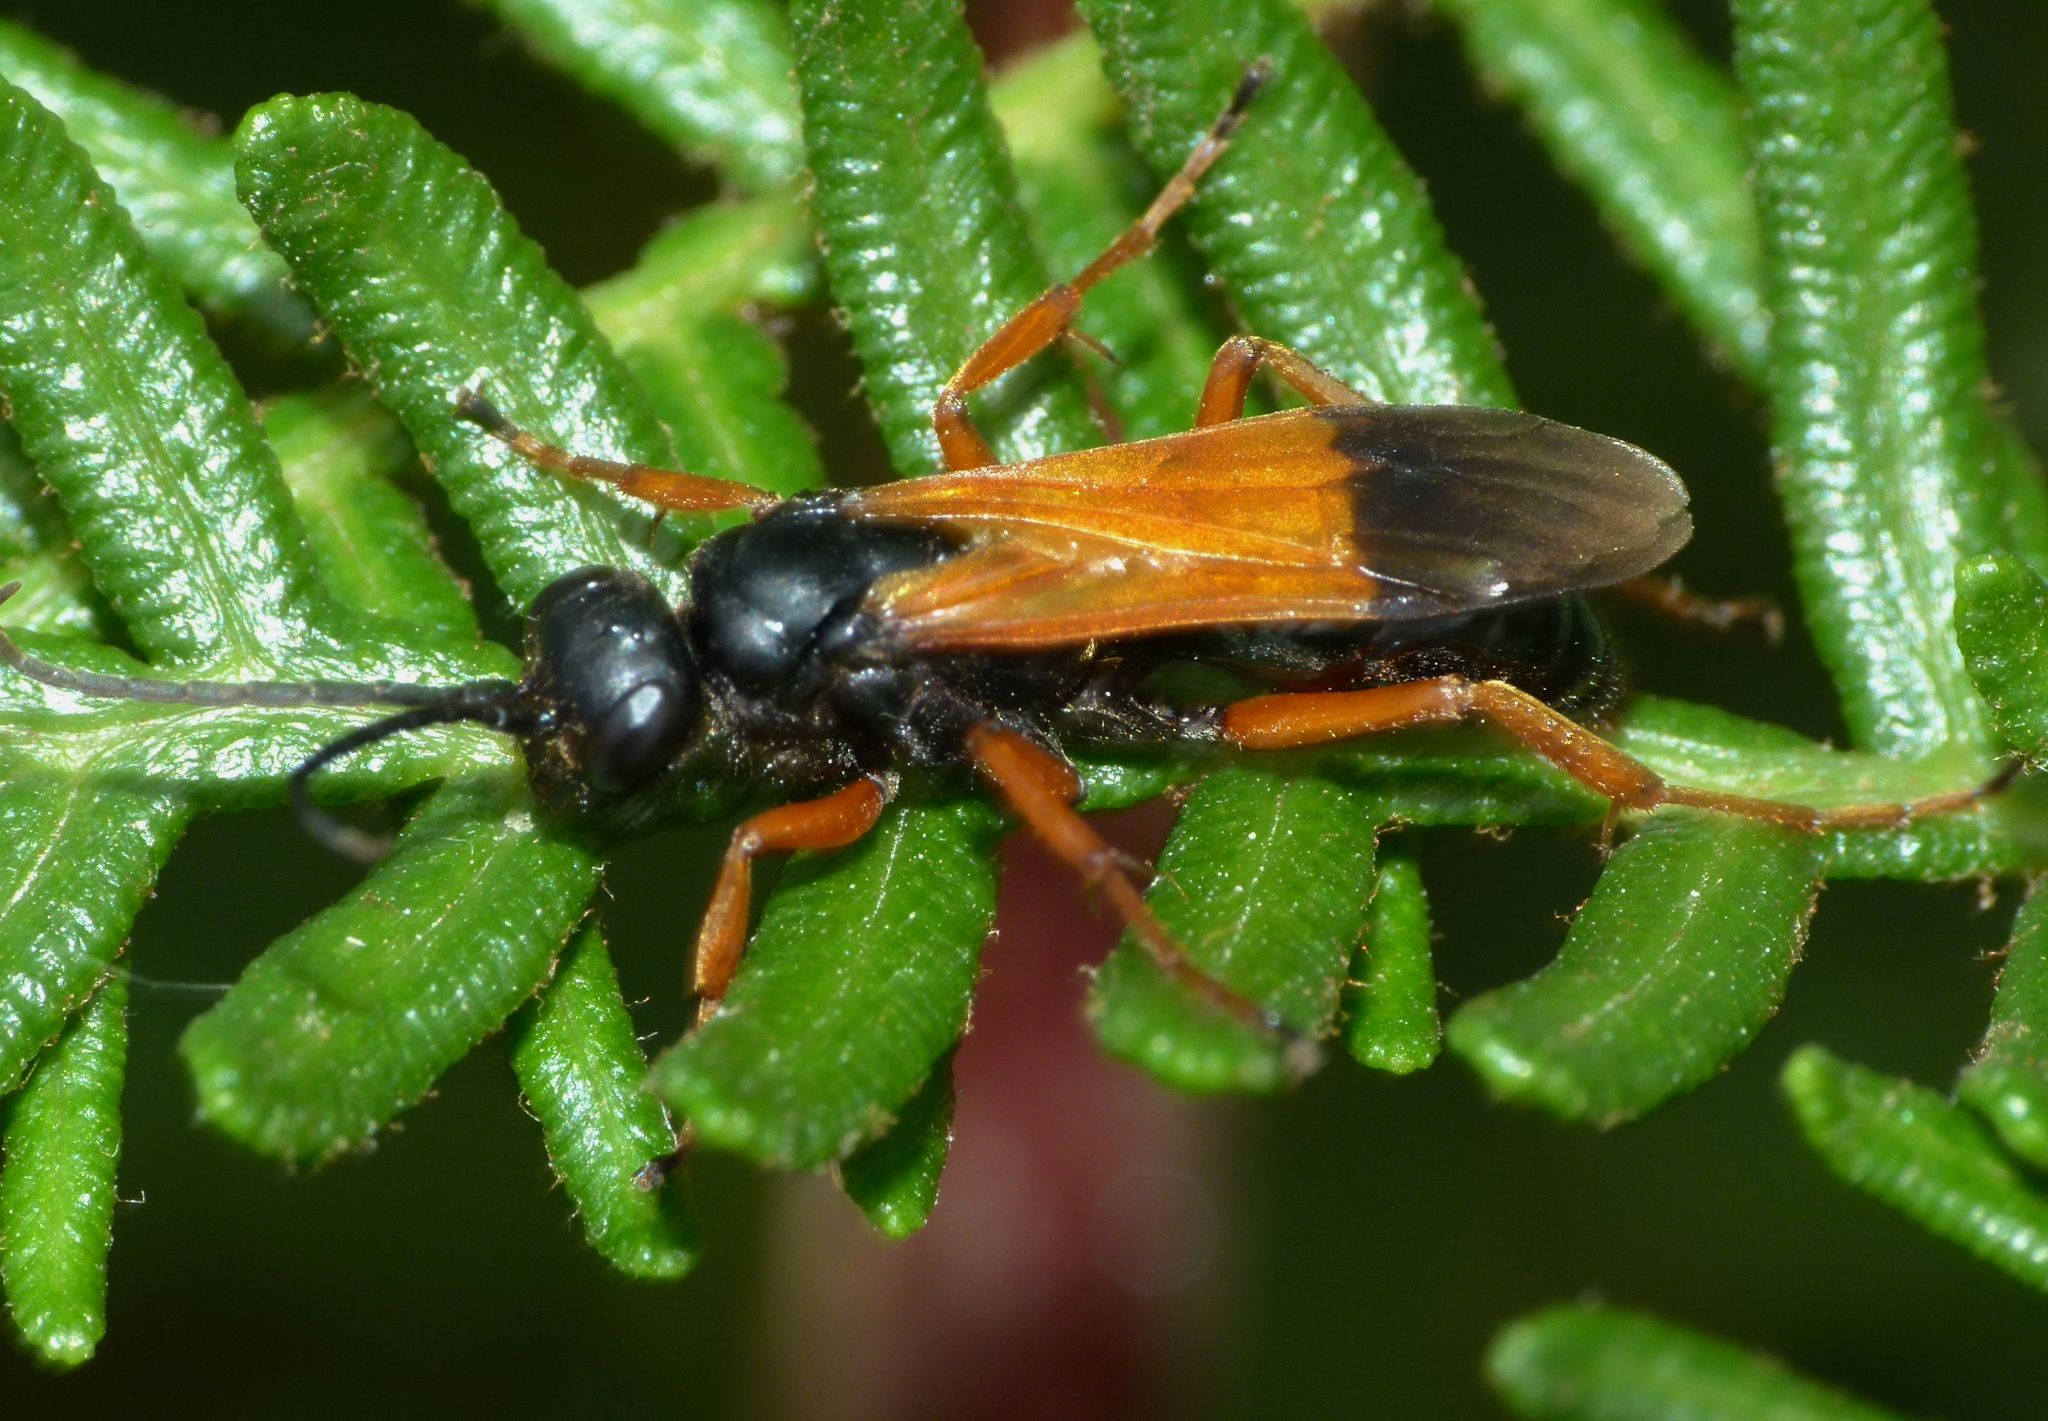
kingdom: Animalia
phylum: Arthropoda
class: Insecta
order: Hymenoptera
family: Pompilidae
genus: Priocnemis
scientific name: Priocnemis conformis
